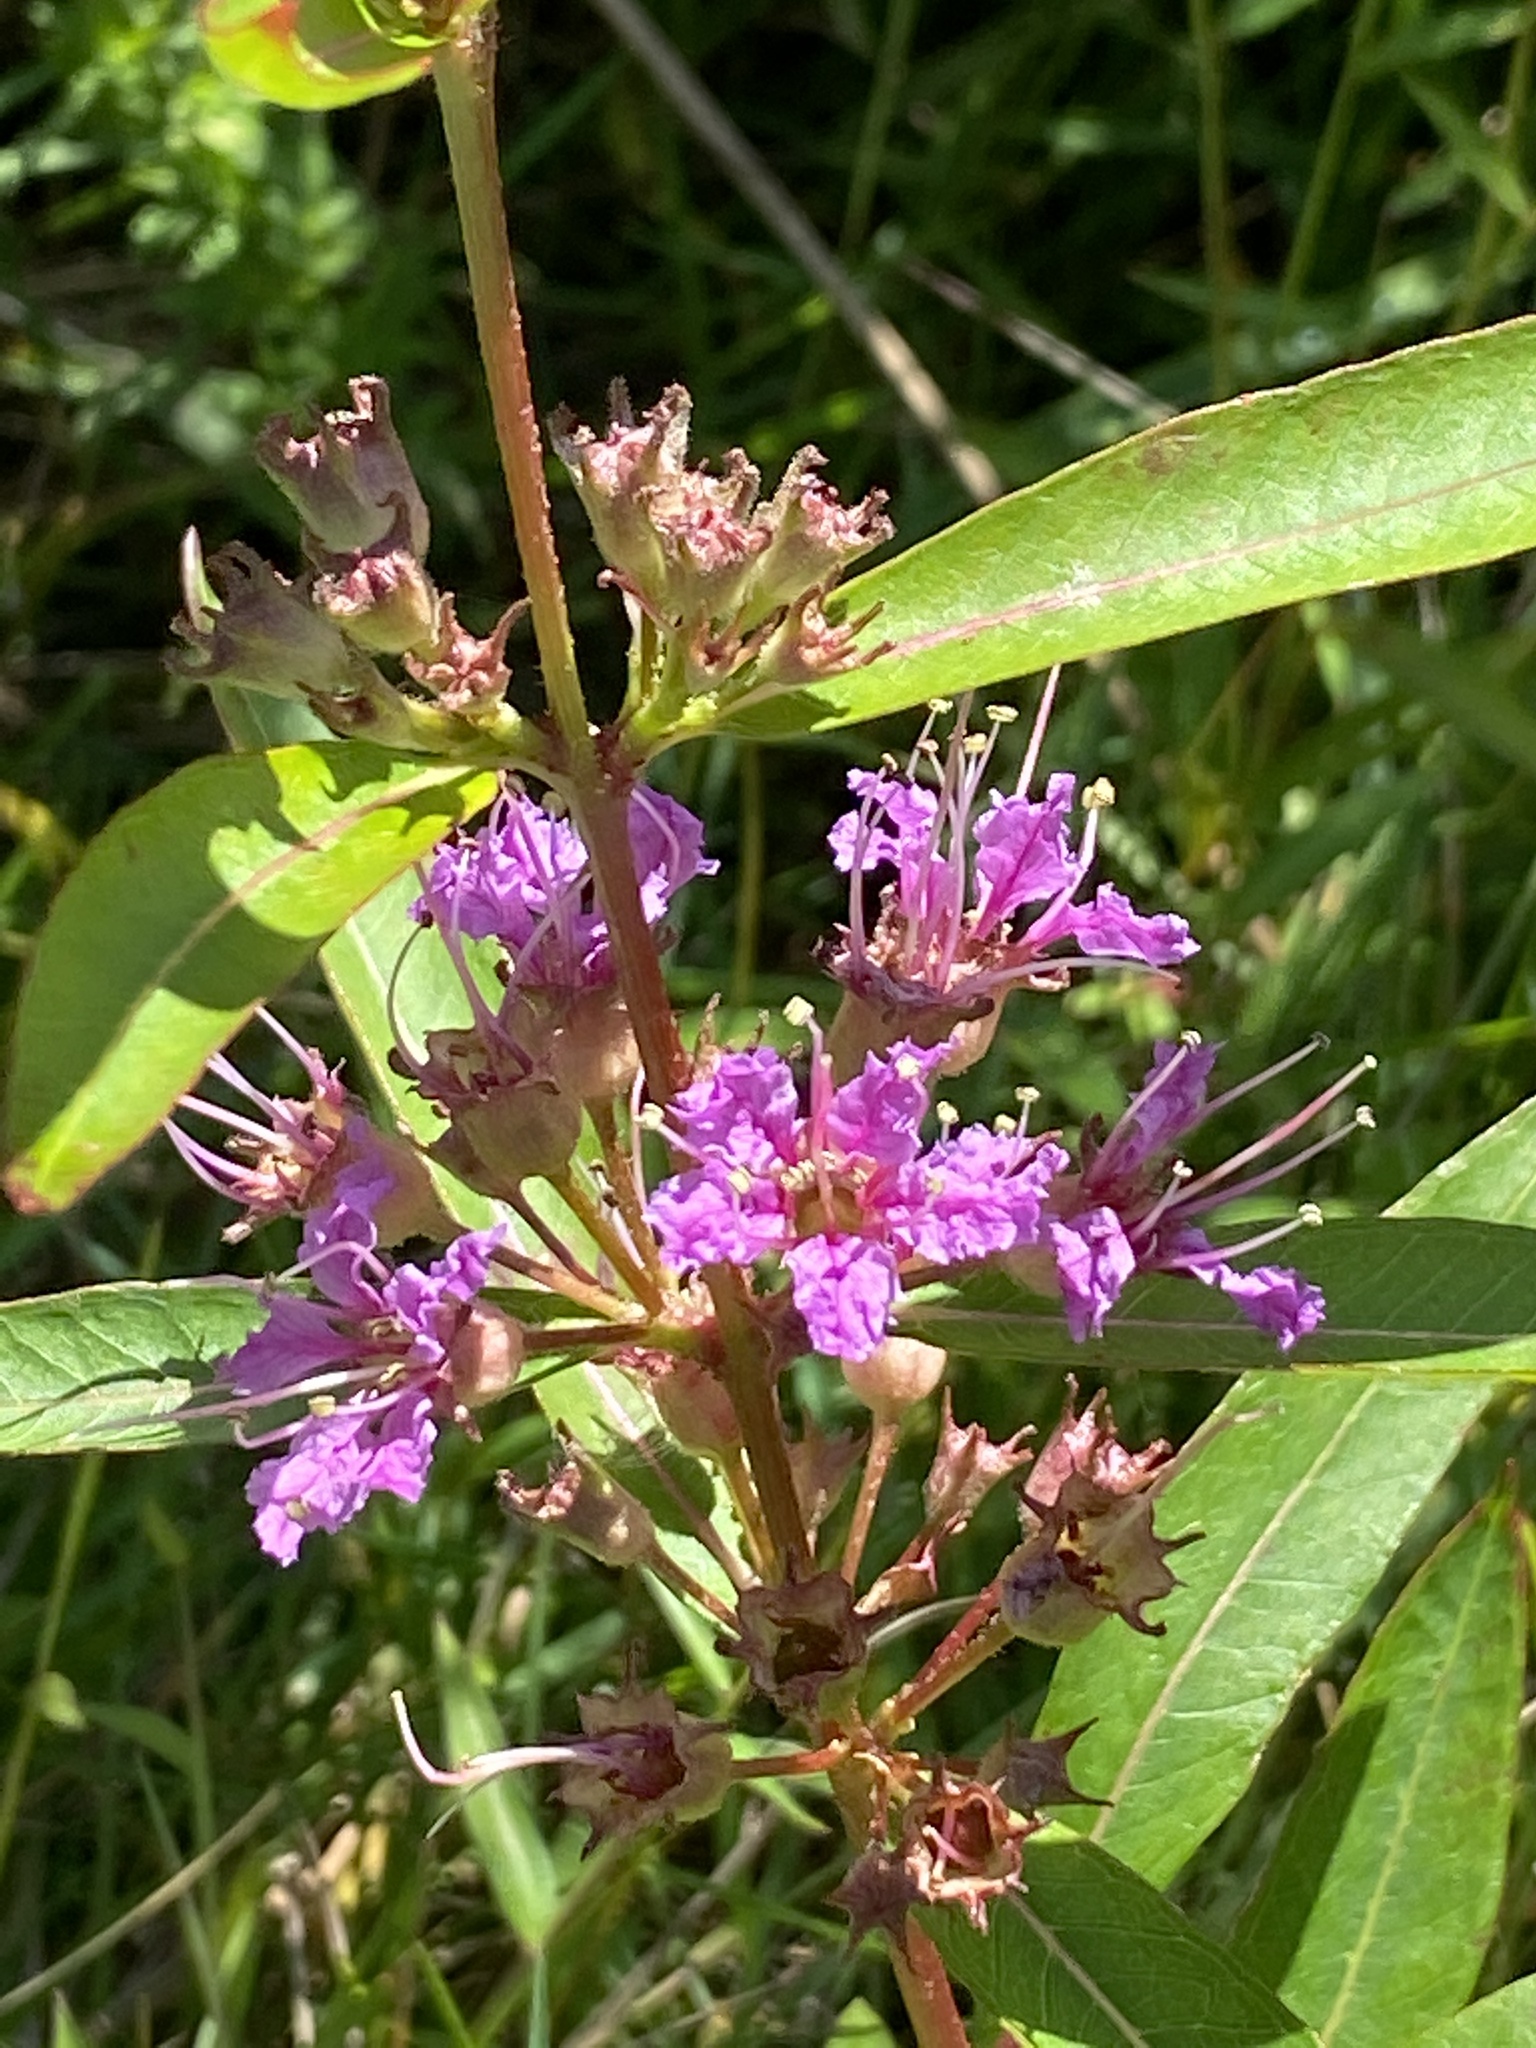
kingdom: Plantae
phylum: Tracheophyta
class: Magnoliopsida
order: Myrtales
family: Lythraceae
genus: Decodon
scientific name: Decodon verticillatus
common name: Hairy swamp loosestrife
